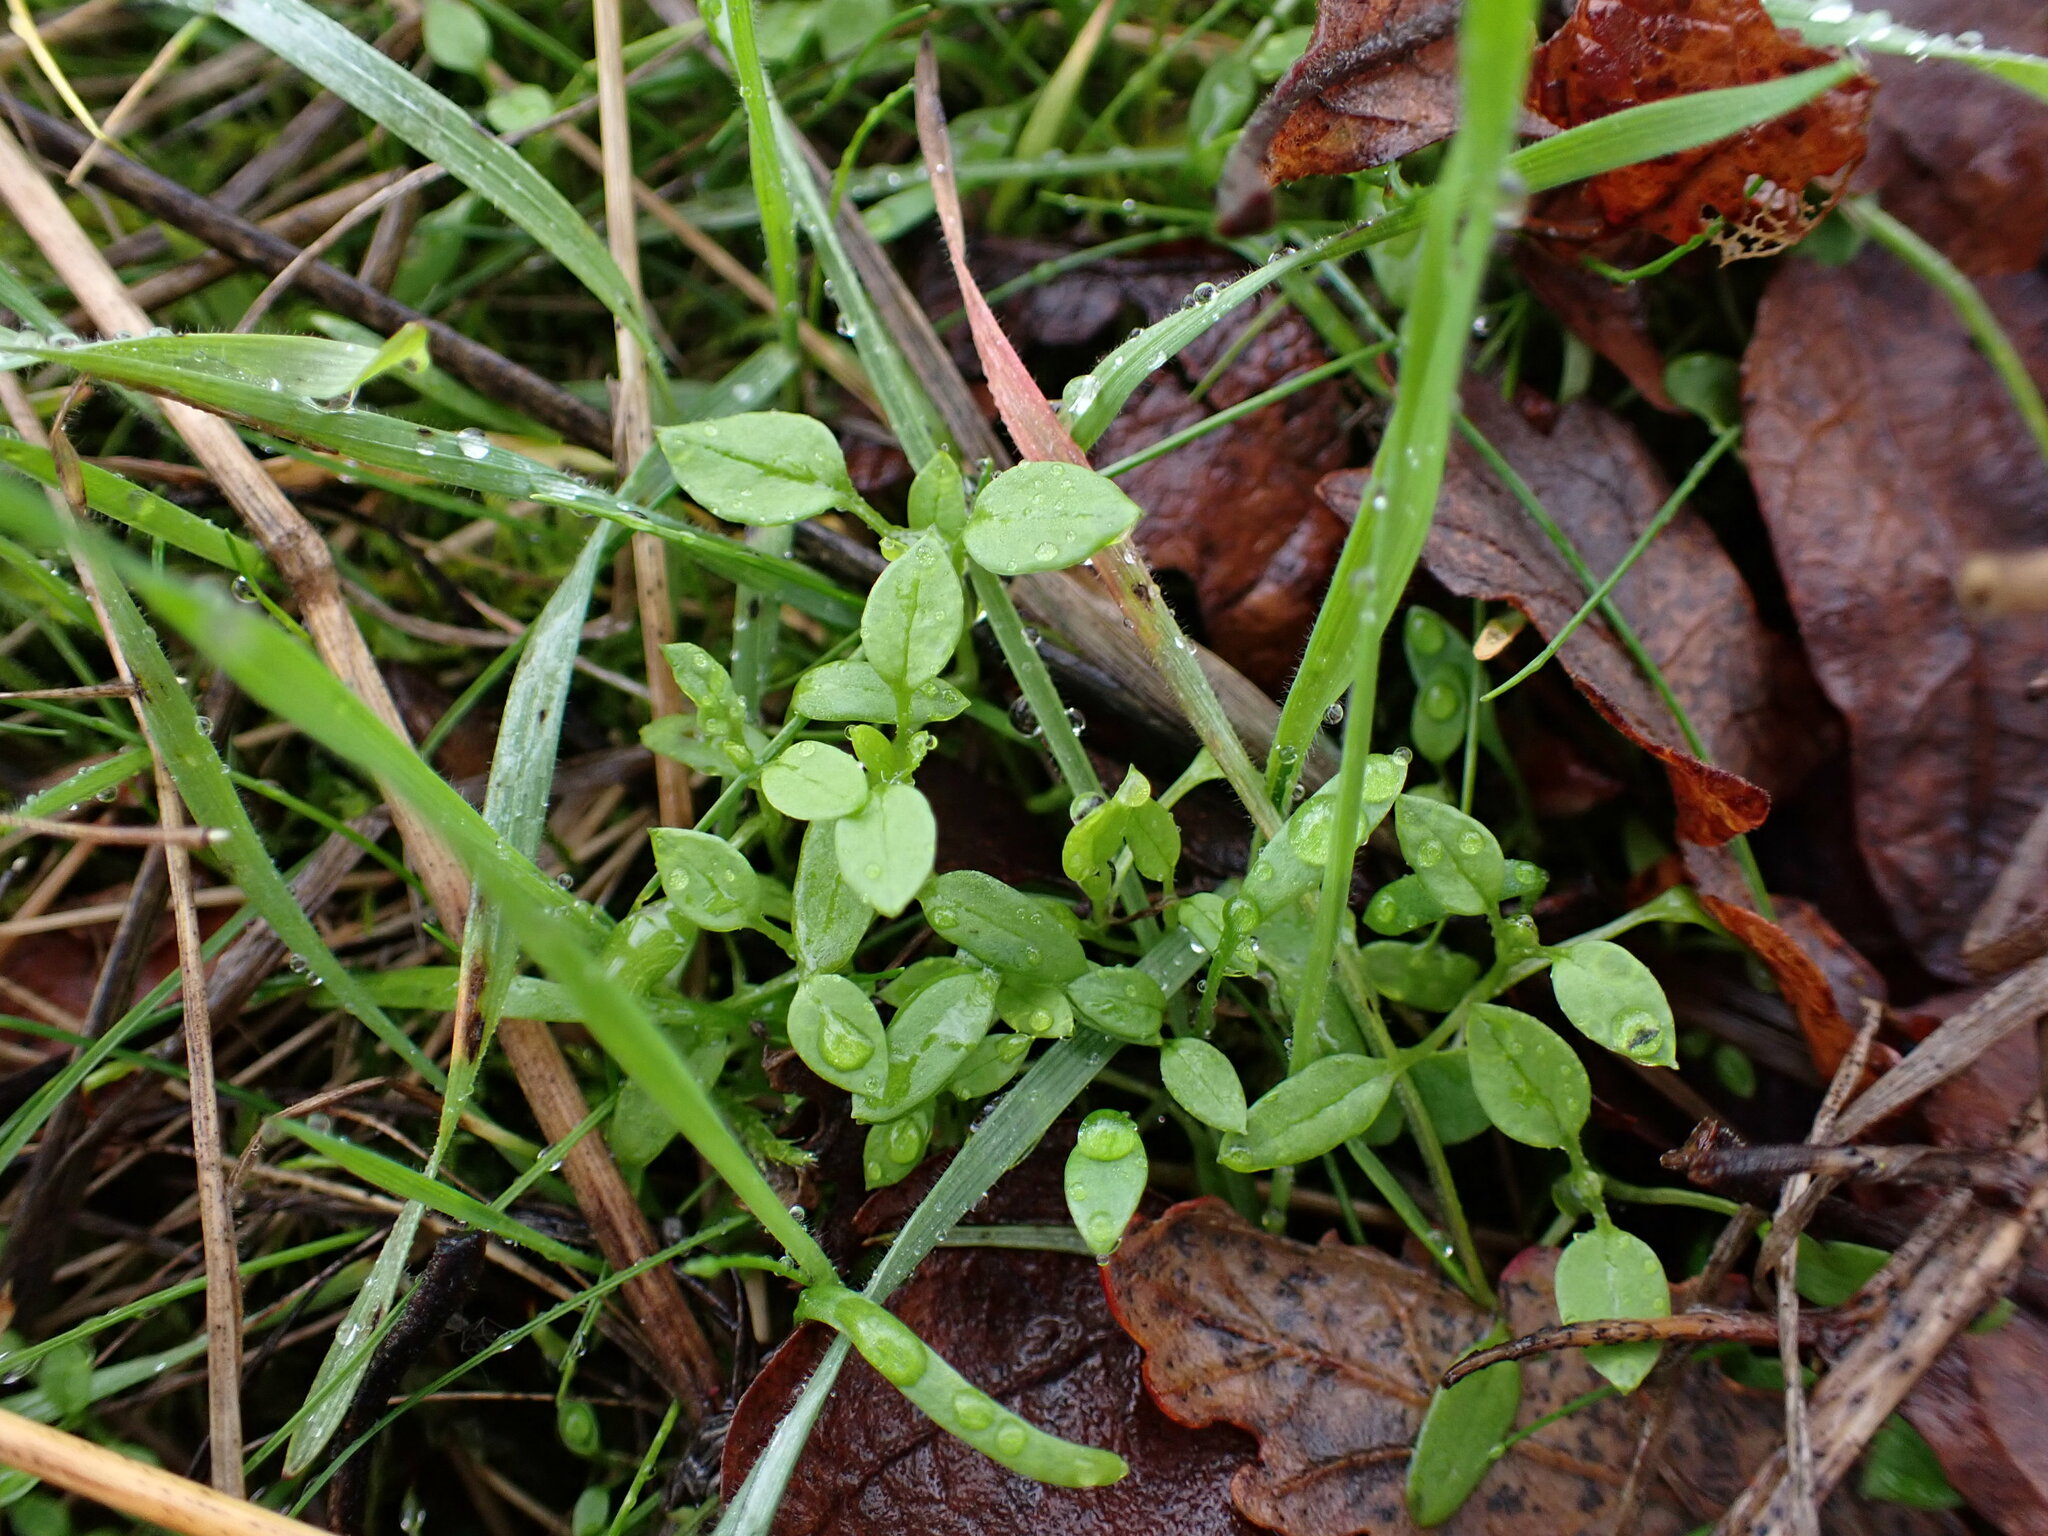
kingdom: Plantae
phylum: Tracheophyta
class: Magnoliopsida
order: Caryophyllales
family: Montiaceae
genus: Montia
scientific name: Montia fontana
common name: Blinks
